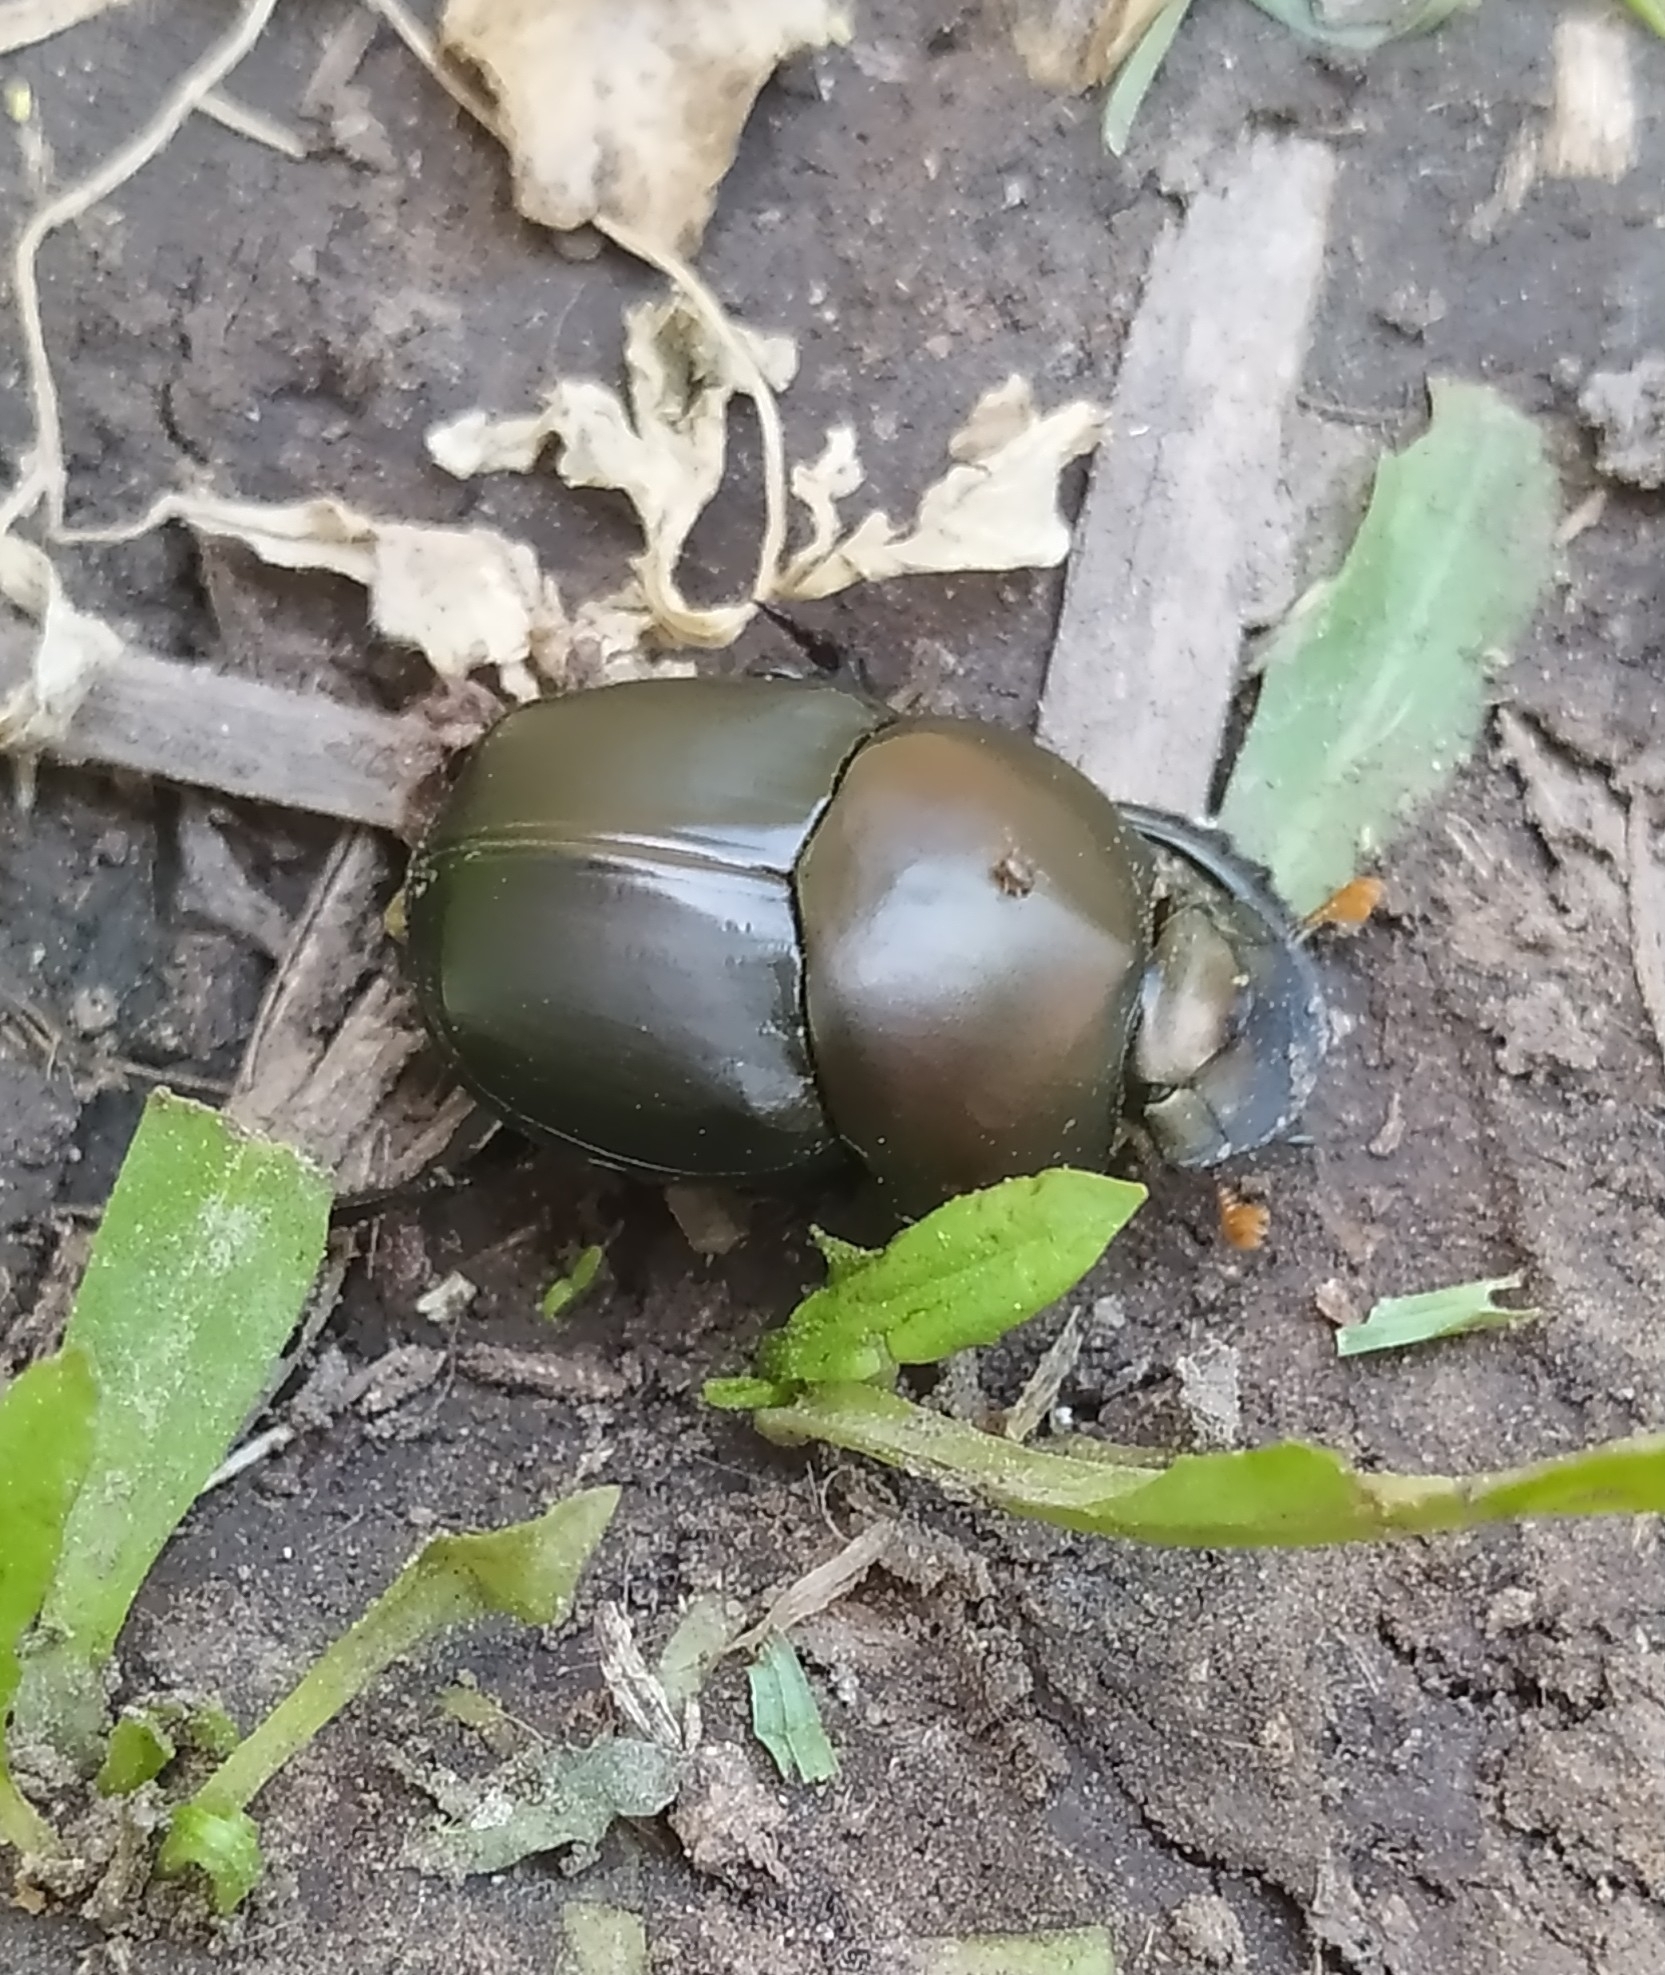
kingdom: Animalia
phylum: Arthropoda
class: Insecta
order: Coleoptera
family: Scarabaeidae
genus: Gromphas
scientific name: Gromphas inermis
